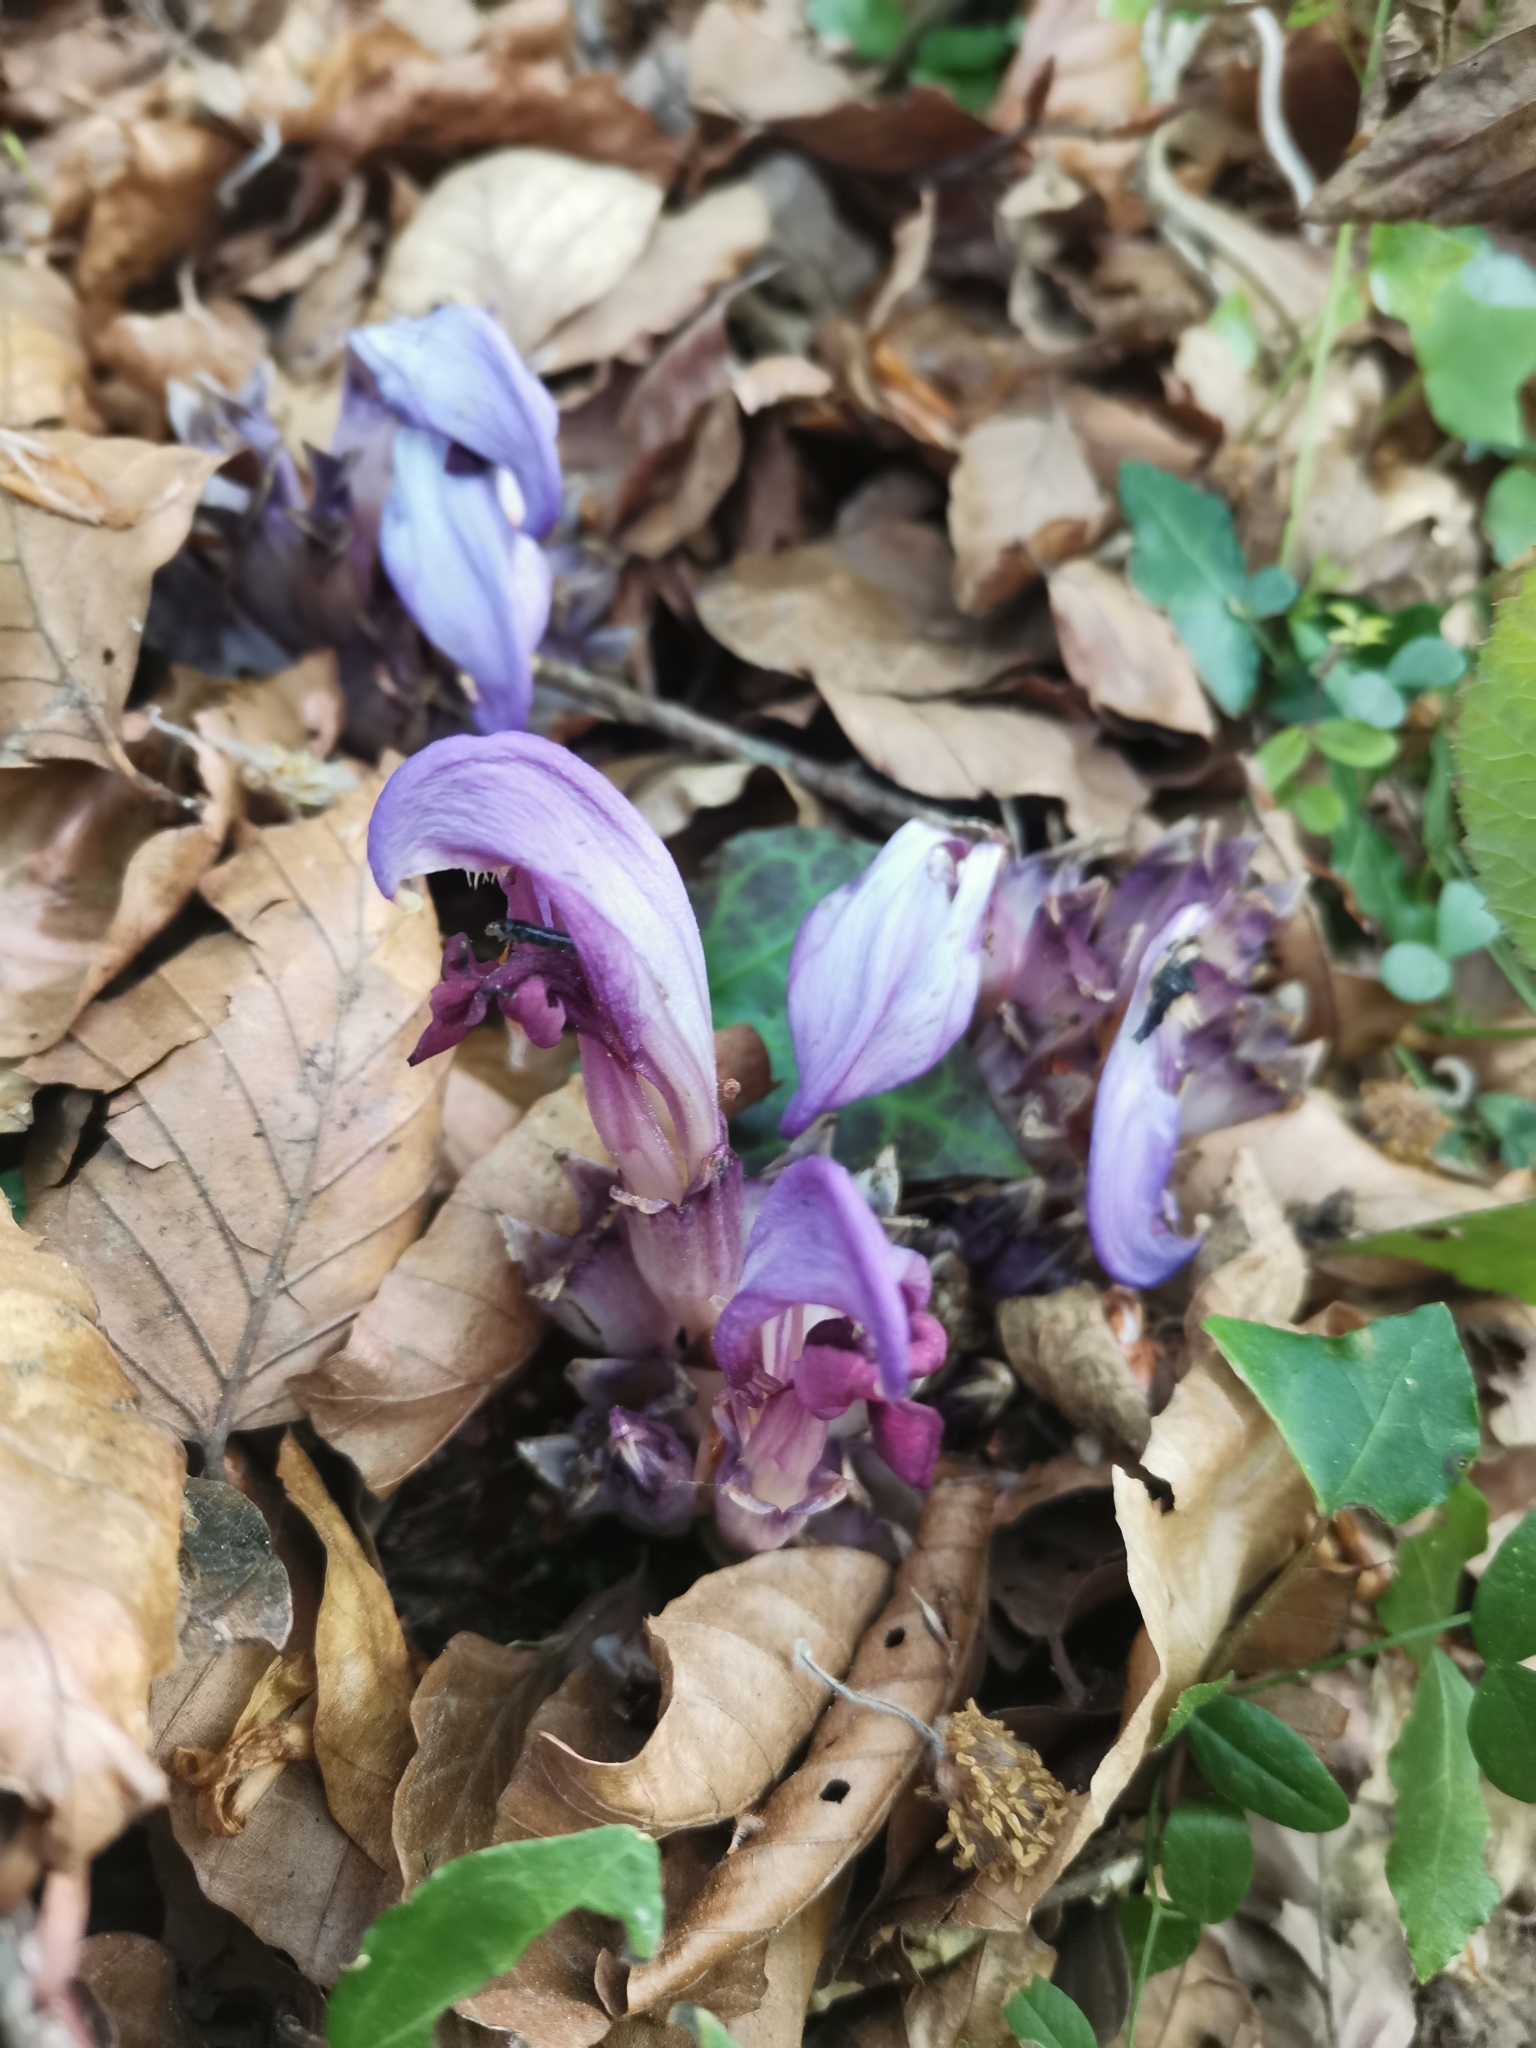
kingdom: Plantae
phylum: Tracheophyta
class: Magnoliopsida
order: Lamiales
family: Orobanchaceae
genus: Lathraea
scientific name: Lathraea clandestina
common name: Purple toothwort
